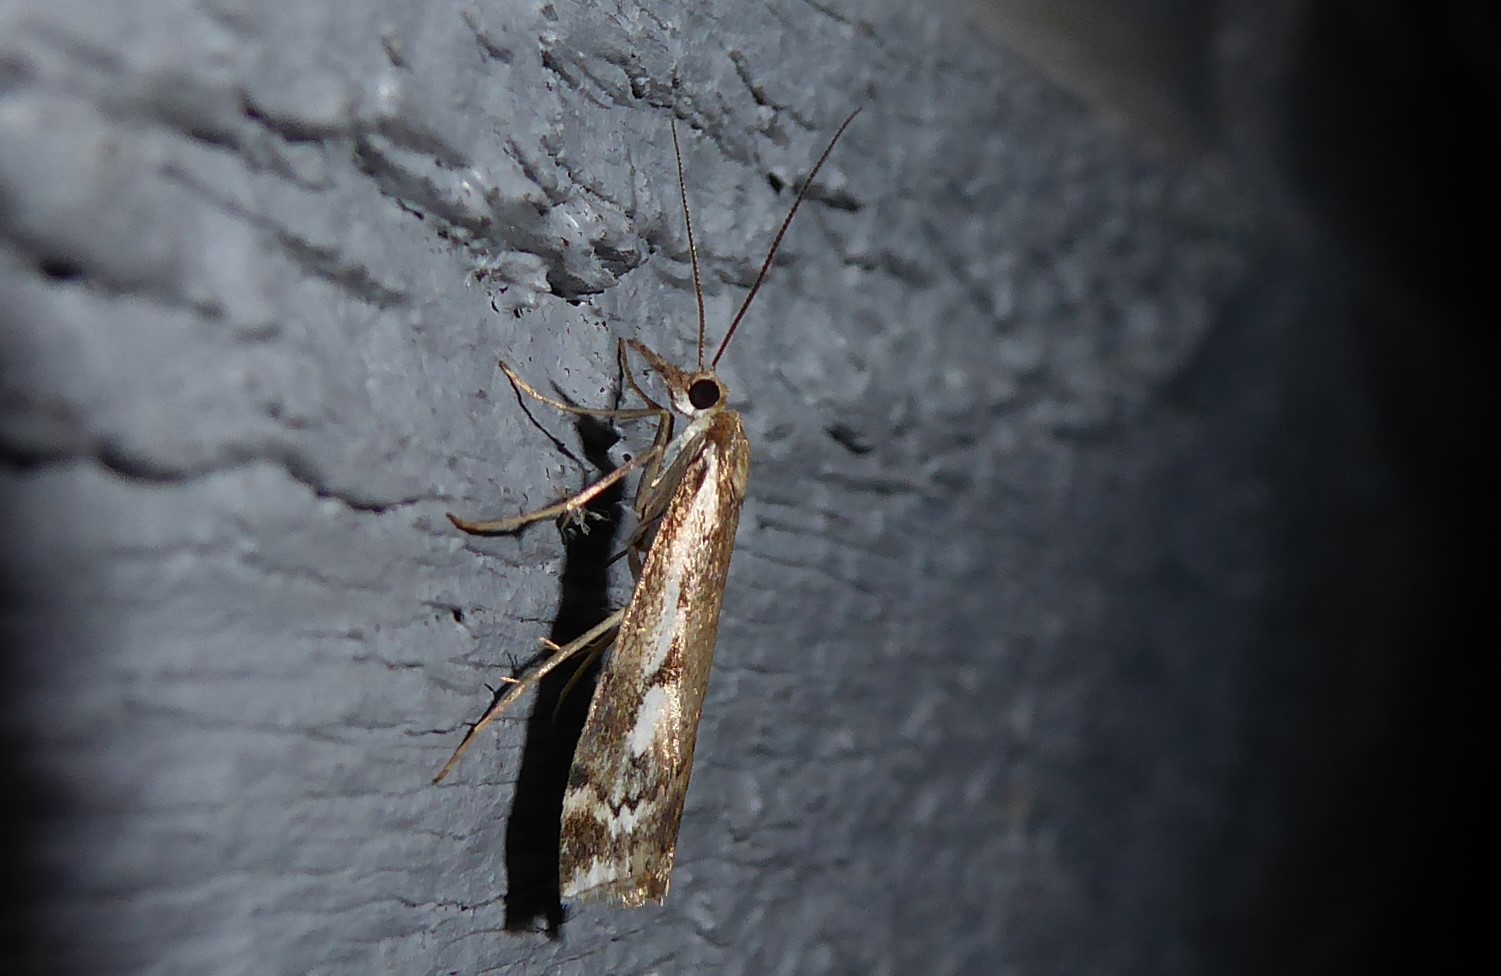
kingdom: Animalia
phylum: Arthropoda
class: Insecta
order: Lepidoptera
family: Crambidae
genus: Orocrambus
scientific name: Orocrambus vulgaris
